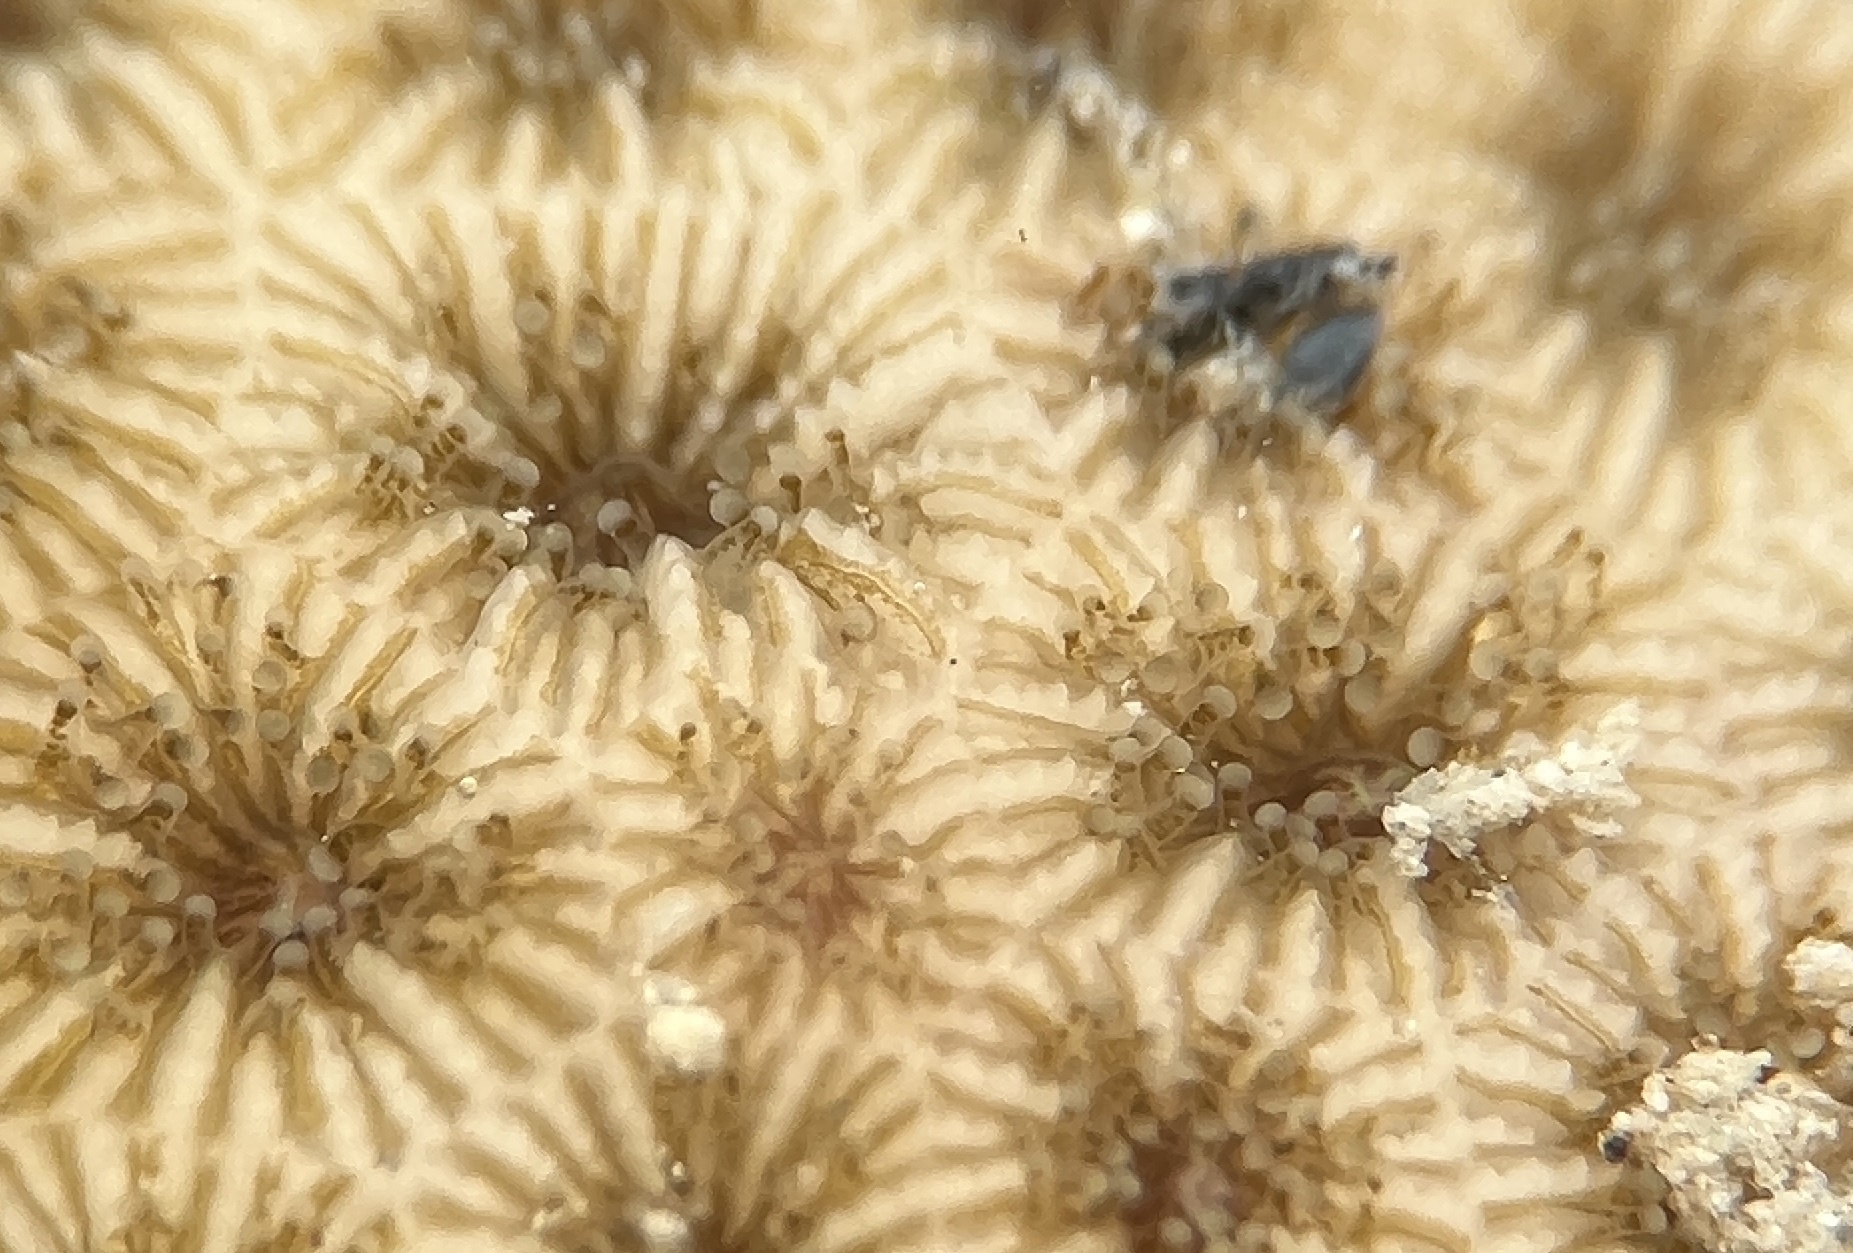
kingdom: Animalia
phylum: Cnidaria
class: Anthozoa
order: Scleractinia
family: Rhizangiidae
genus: Siderastrea
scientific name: Siderastrea radians
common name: Lesser starlet coral
